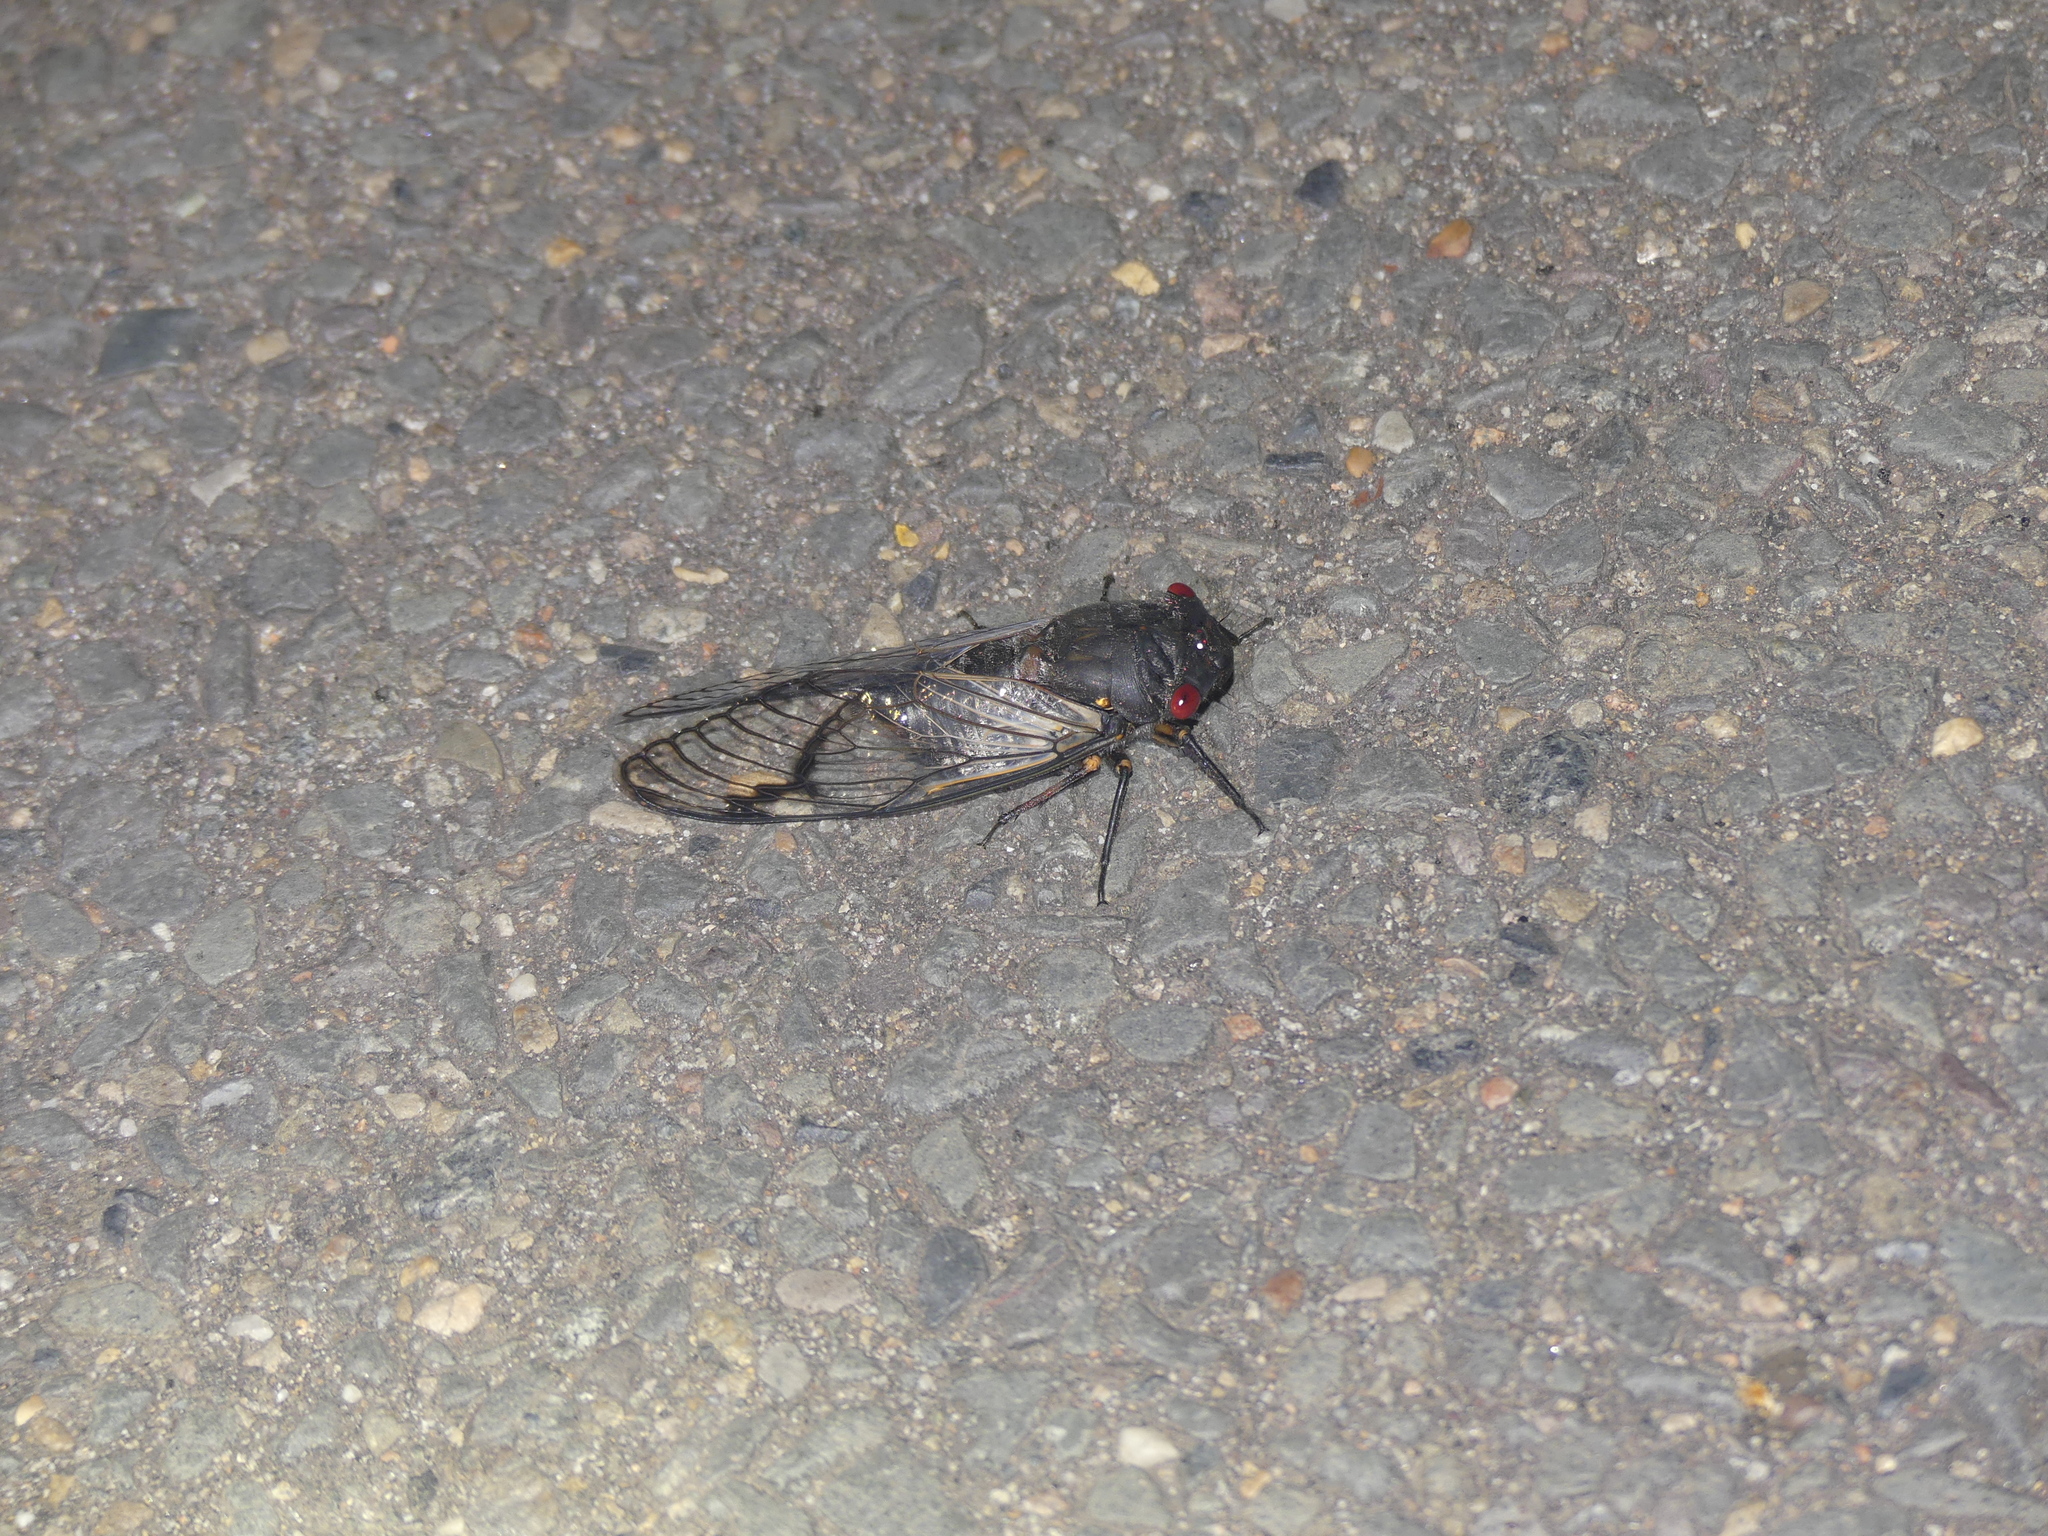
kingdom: Animalia
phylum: Arthropoda
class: Insecta
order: Hemiptera
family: Cicadidae
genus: Psaltoda
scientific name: Psaltoda moerens
